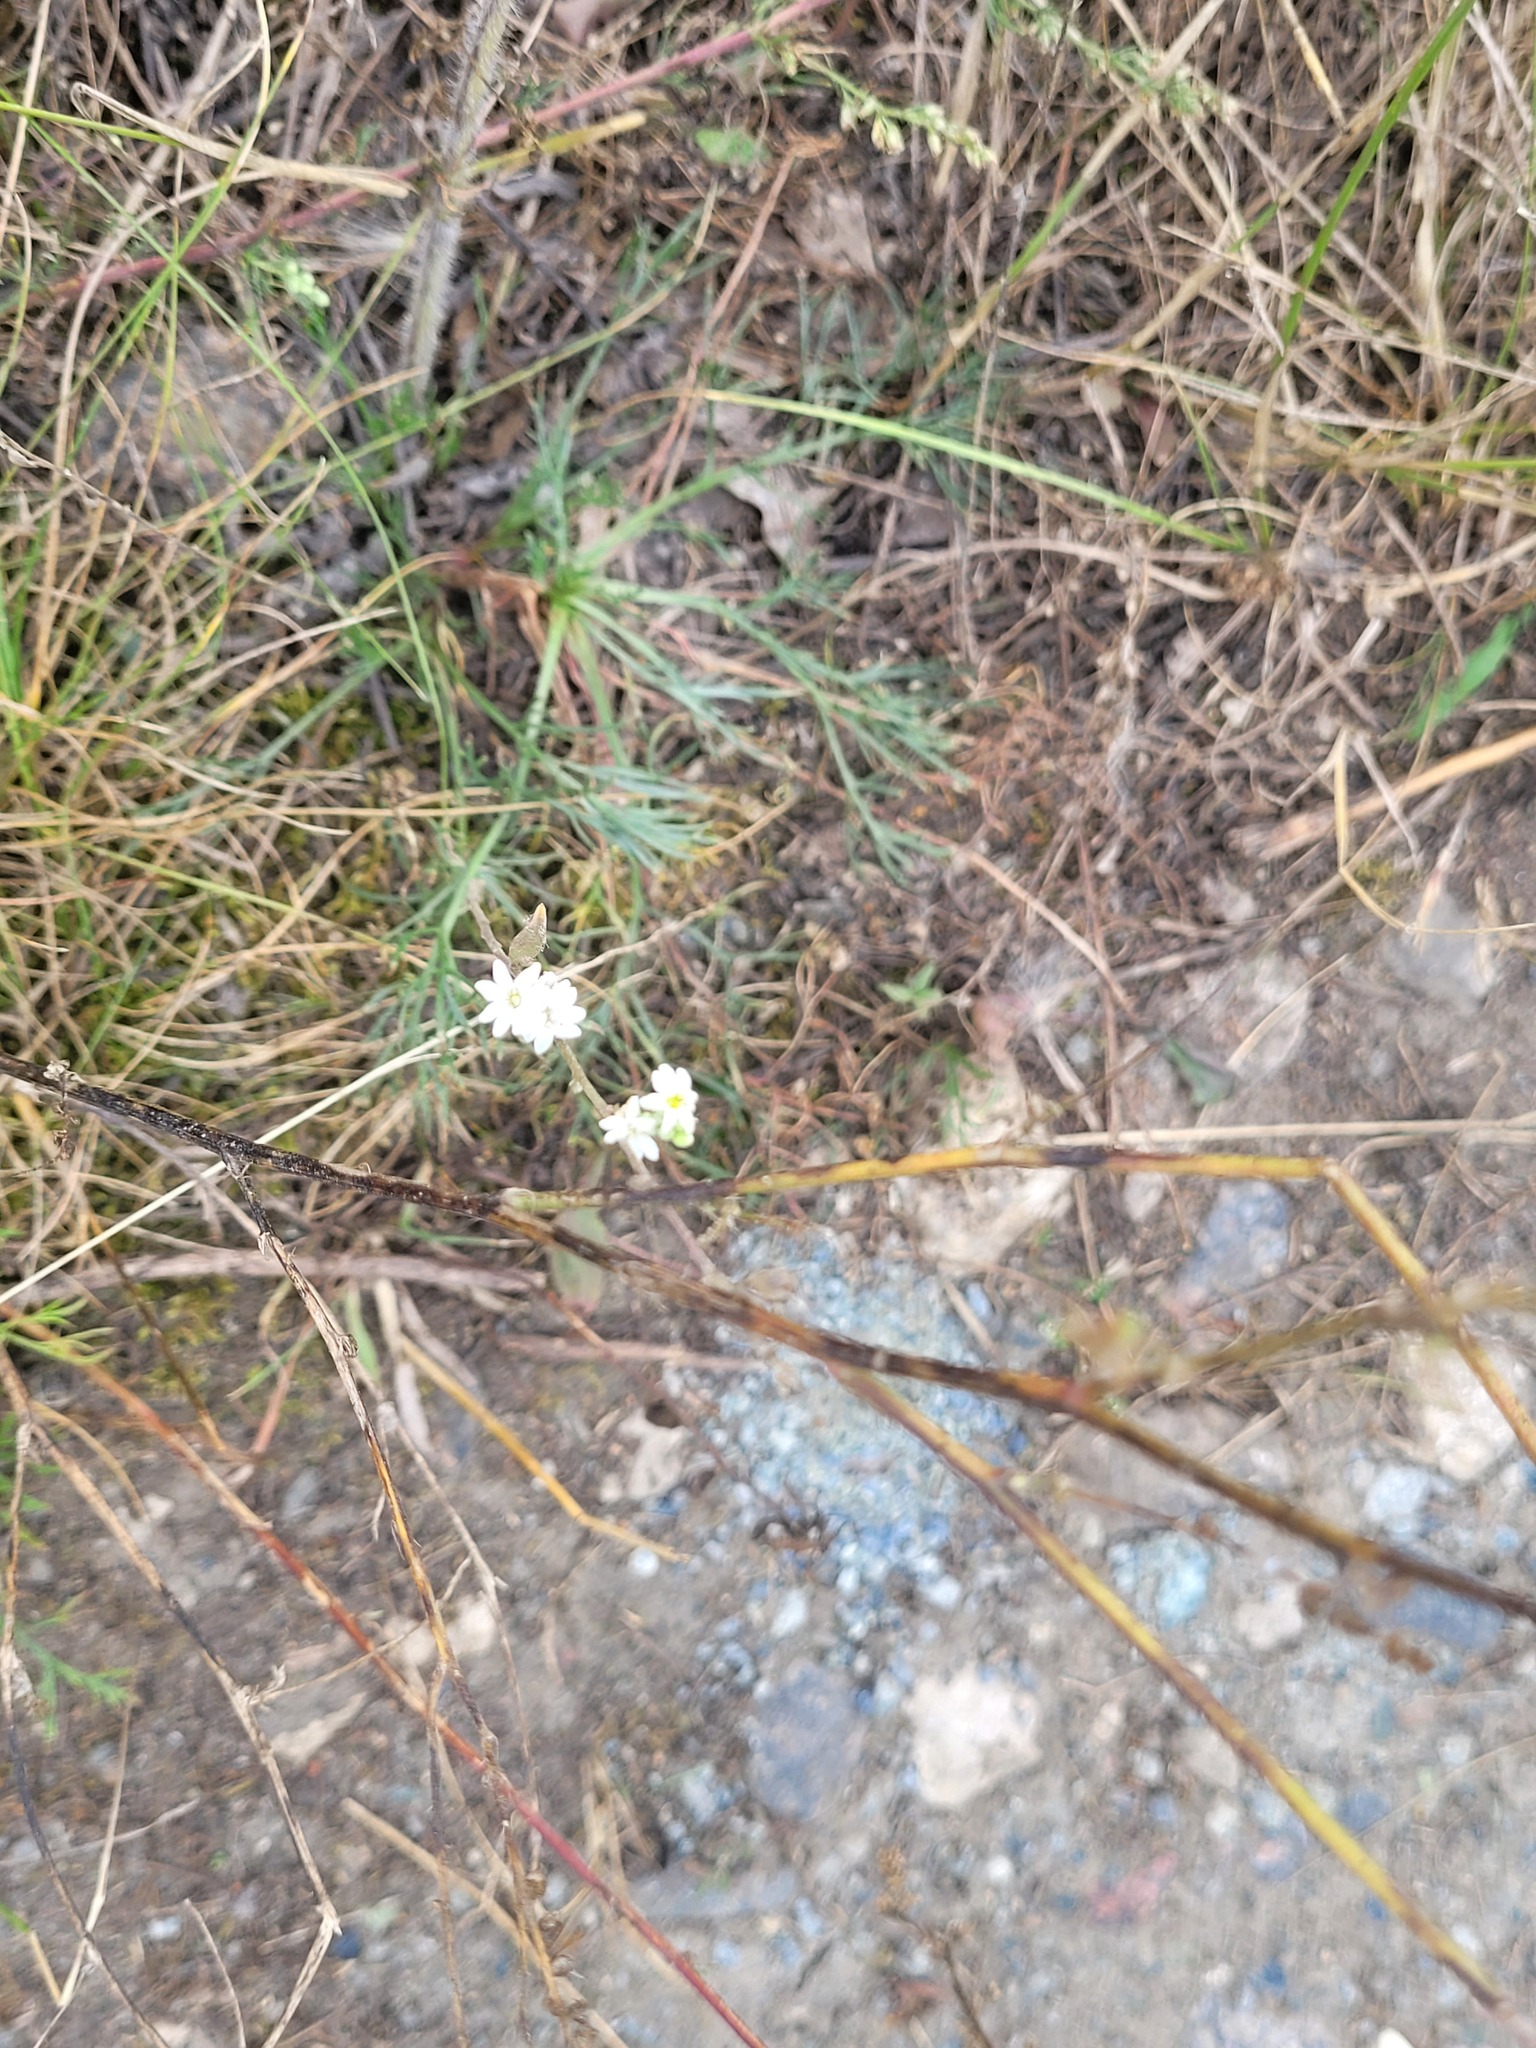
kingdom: Plantae
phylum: Tracheophyta
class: Magnoliopsida
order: Brassicales
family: Brassicaceae
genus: Berteroa
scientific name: Berteroa incana
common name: Hoary alison
